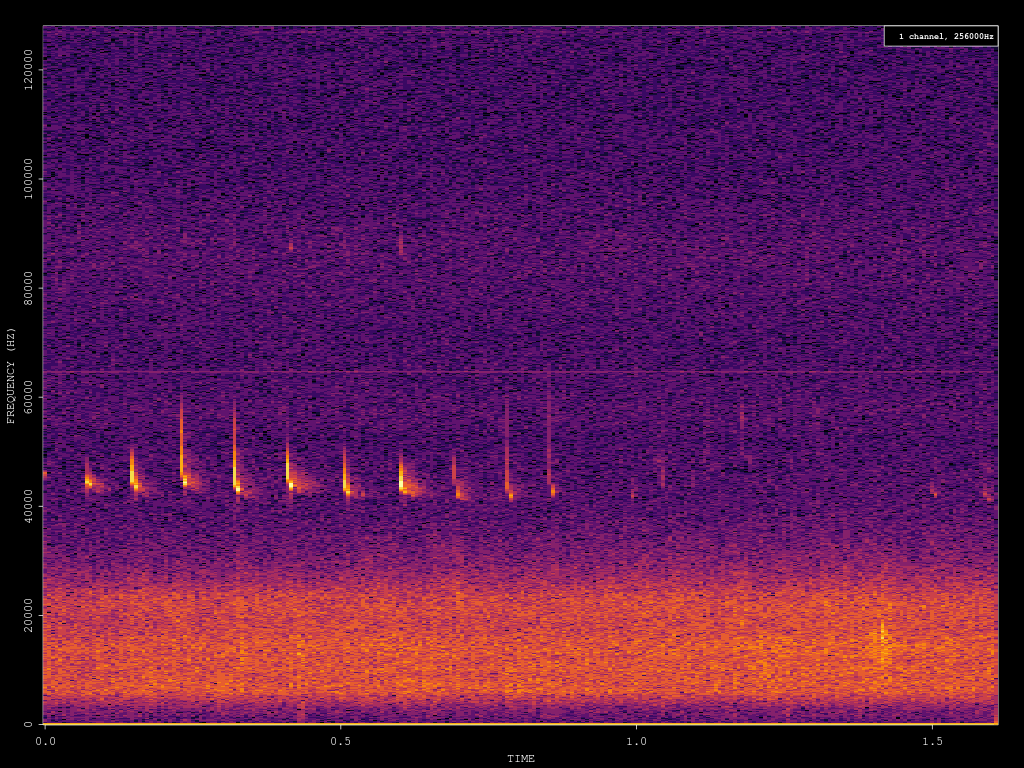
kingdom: Animalia
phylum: Chordata
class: Mammalia
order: Chiroptera
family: Vespertilionidae
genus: Pipistrellus
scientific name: Pipistrellus pipistrellus
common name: Common pipistrelle
